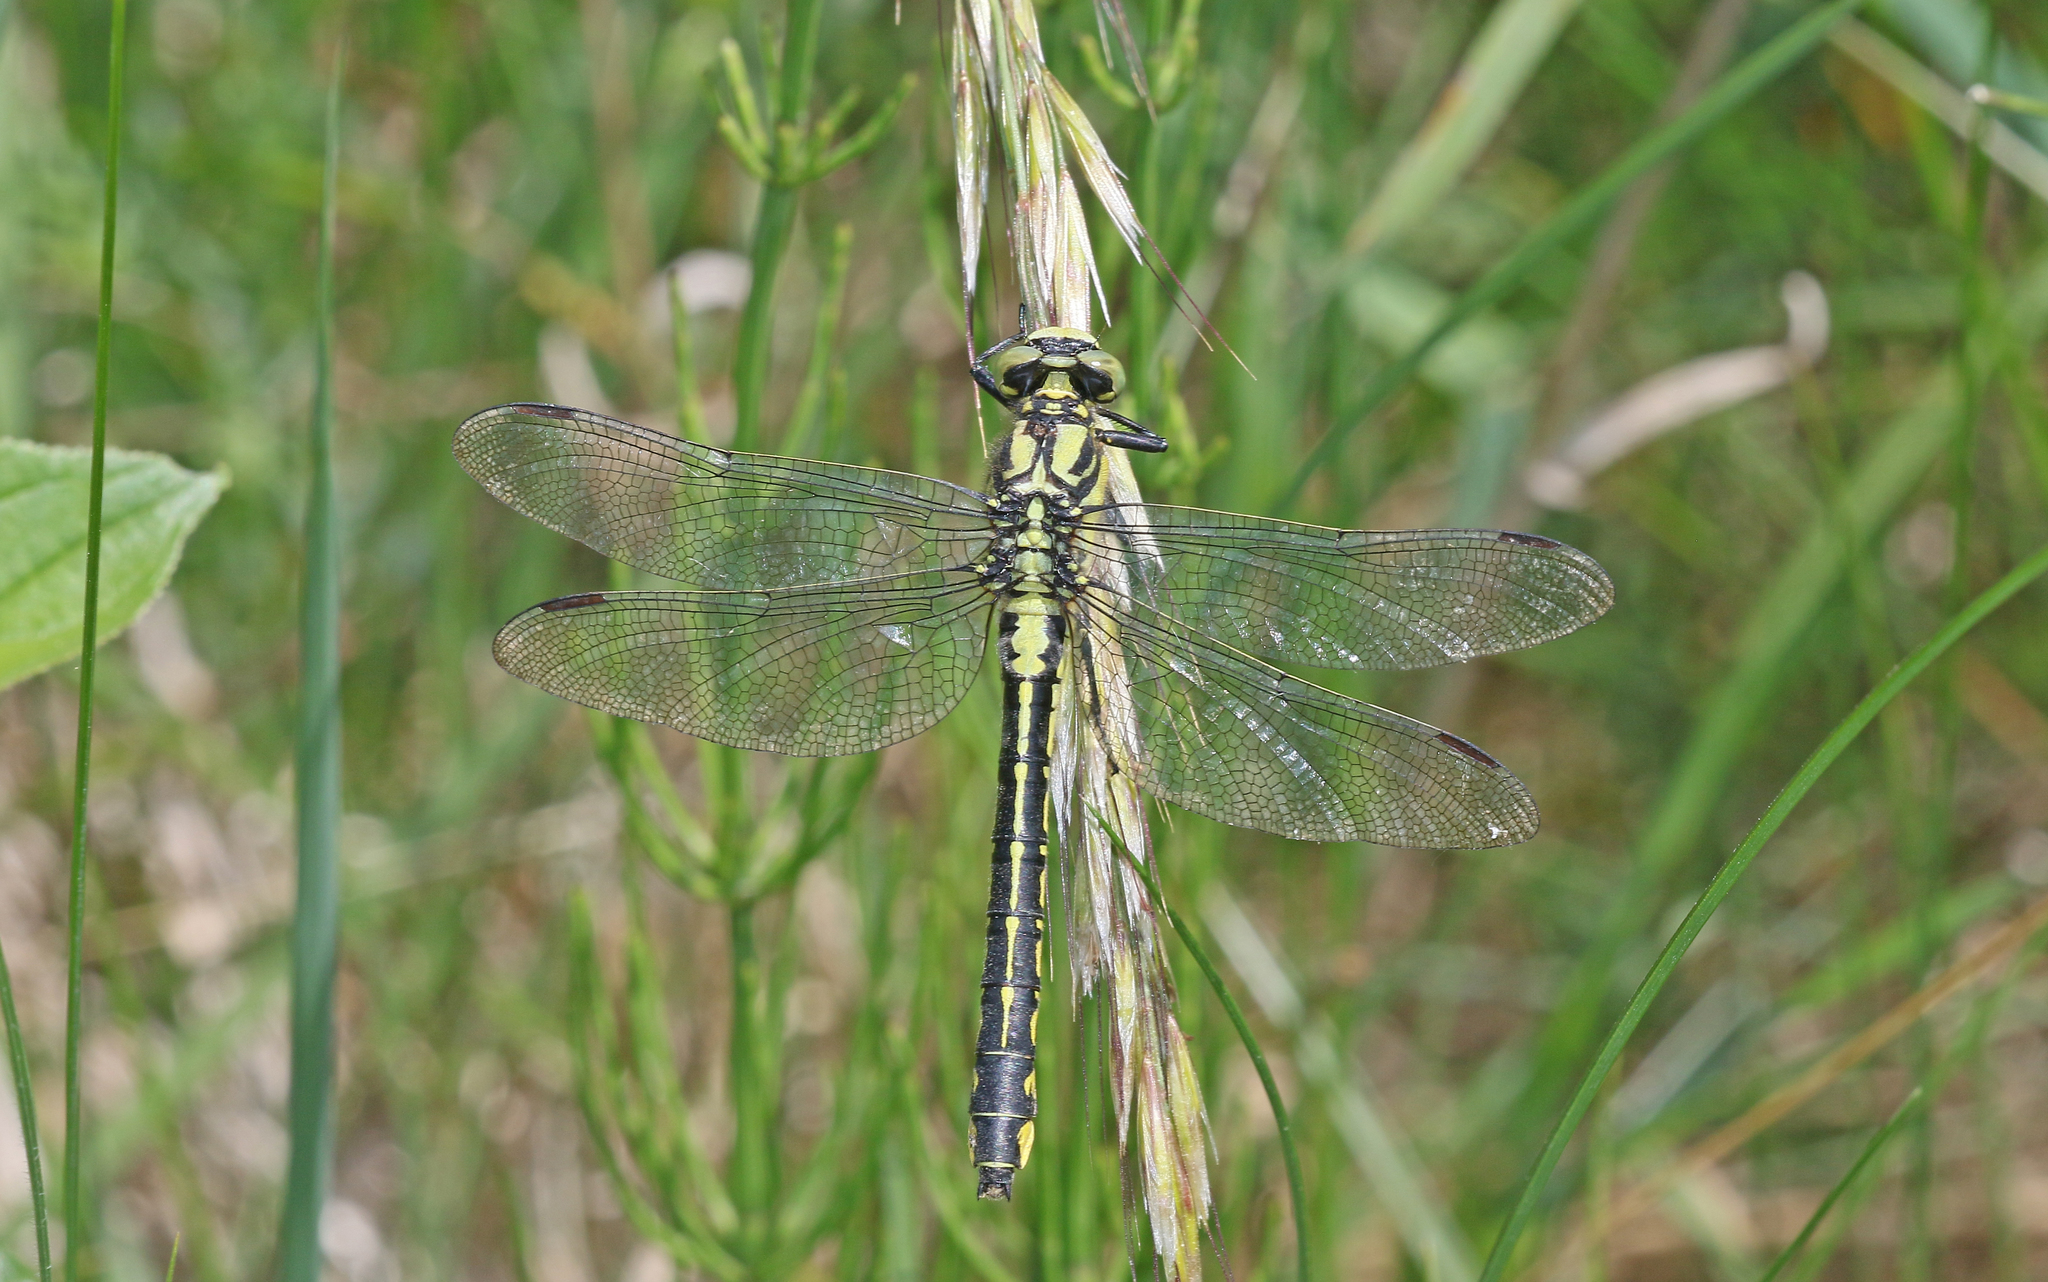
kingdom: Animalia
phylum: Arthropoda
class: Insecta
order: Odonata
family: Gomphidae
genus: Gomphus
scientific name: Gomphus vulgatissimus
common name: Club-tailed dragonfly
